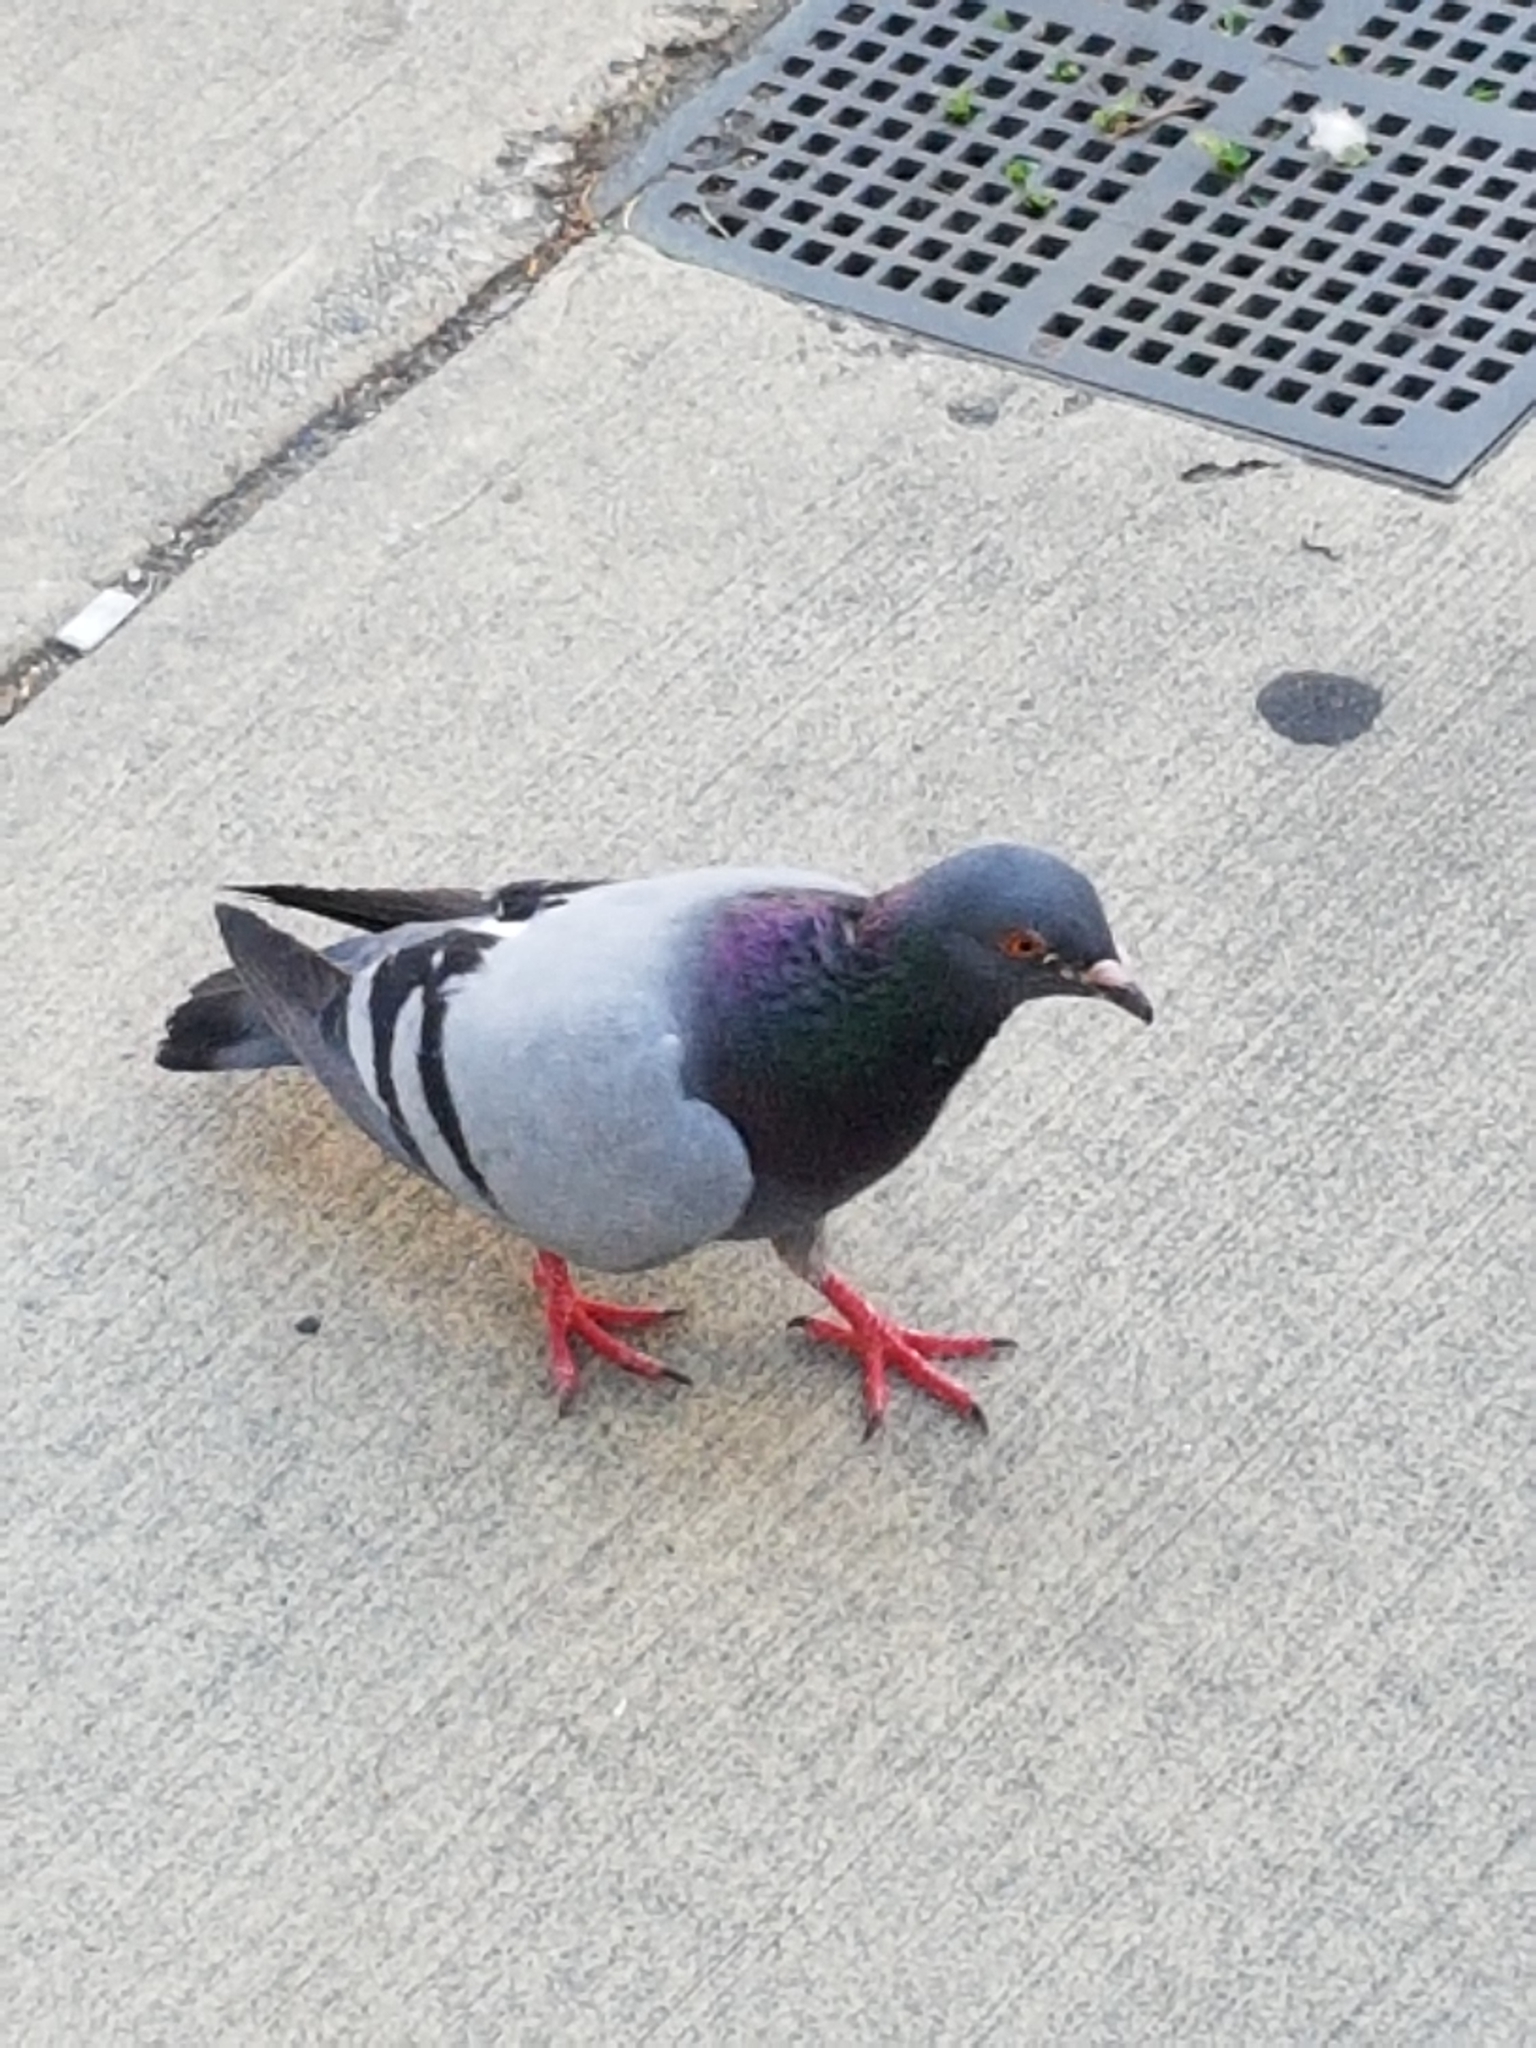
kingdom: Animalia
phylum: Chordata
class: Aves
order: Columbiformes
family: Columbidae
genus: Columba
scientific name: Columba livia
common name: Rock pigeon
